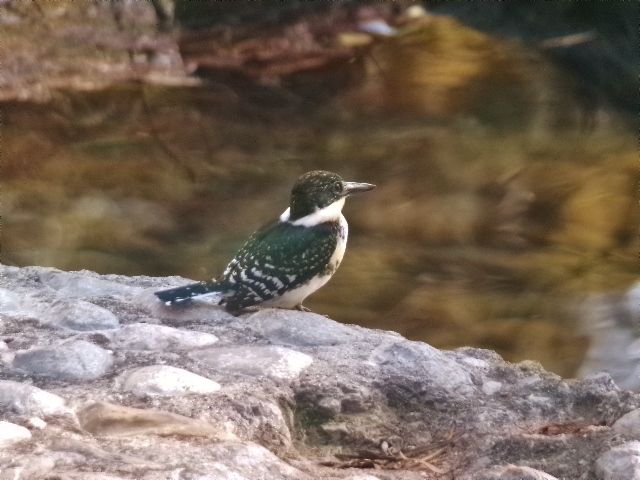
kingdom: Animalia
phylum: Chordata
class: Aves
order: Coraciiformes
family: Alcedinidae
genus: Chloroceryle
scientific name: Chloroceryle americana
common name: Green kingfisher
